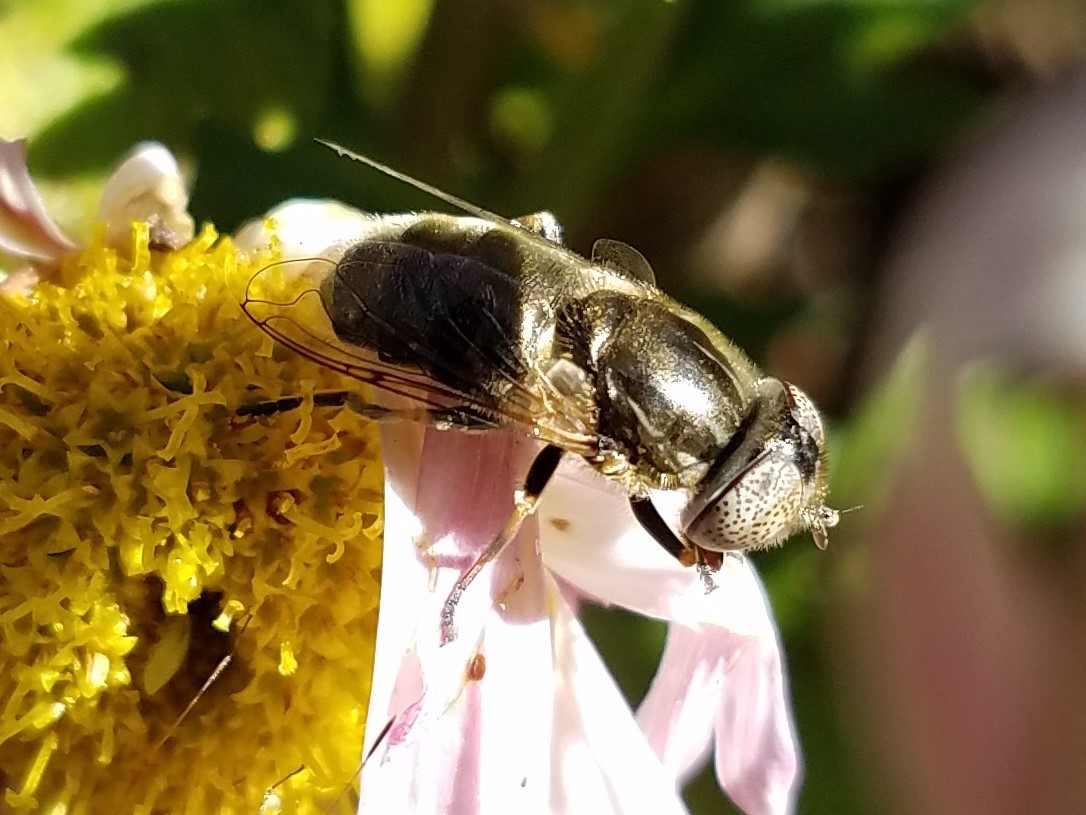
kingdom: Animalia
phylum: Arthropoda
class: Insecta
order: Diptera
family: Syrphidae
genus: Eristalinus
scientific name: Eristalinus aeneus
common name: Syrphid fly
